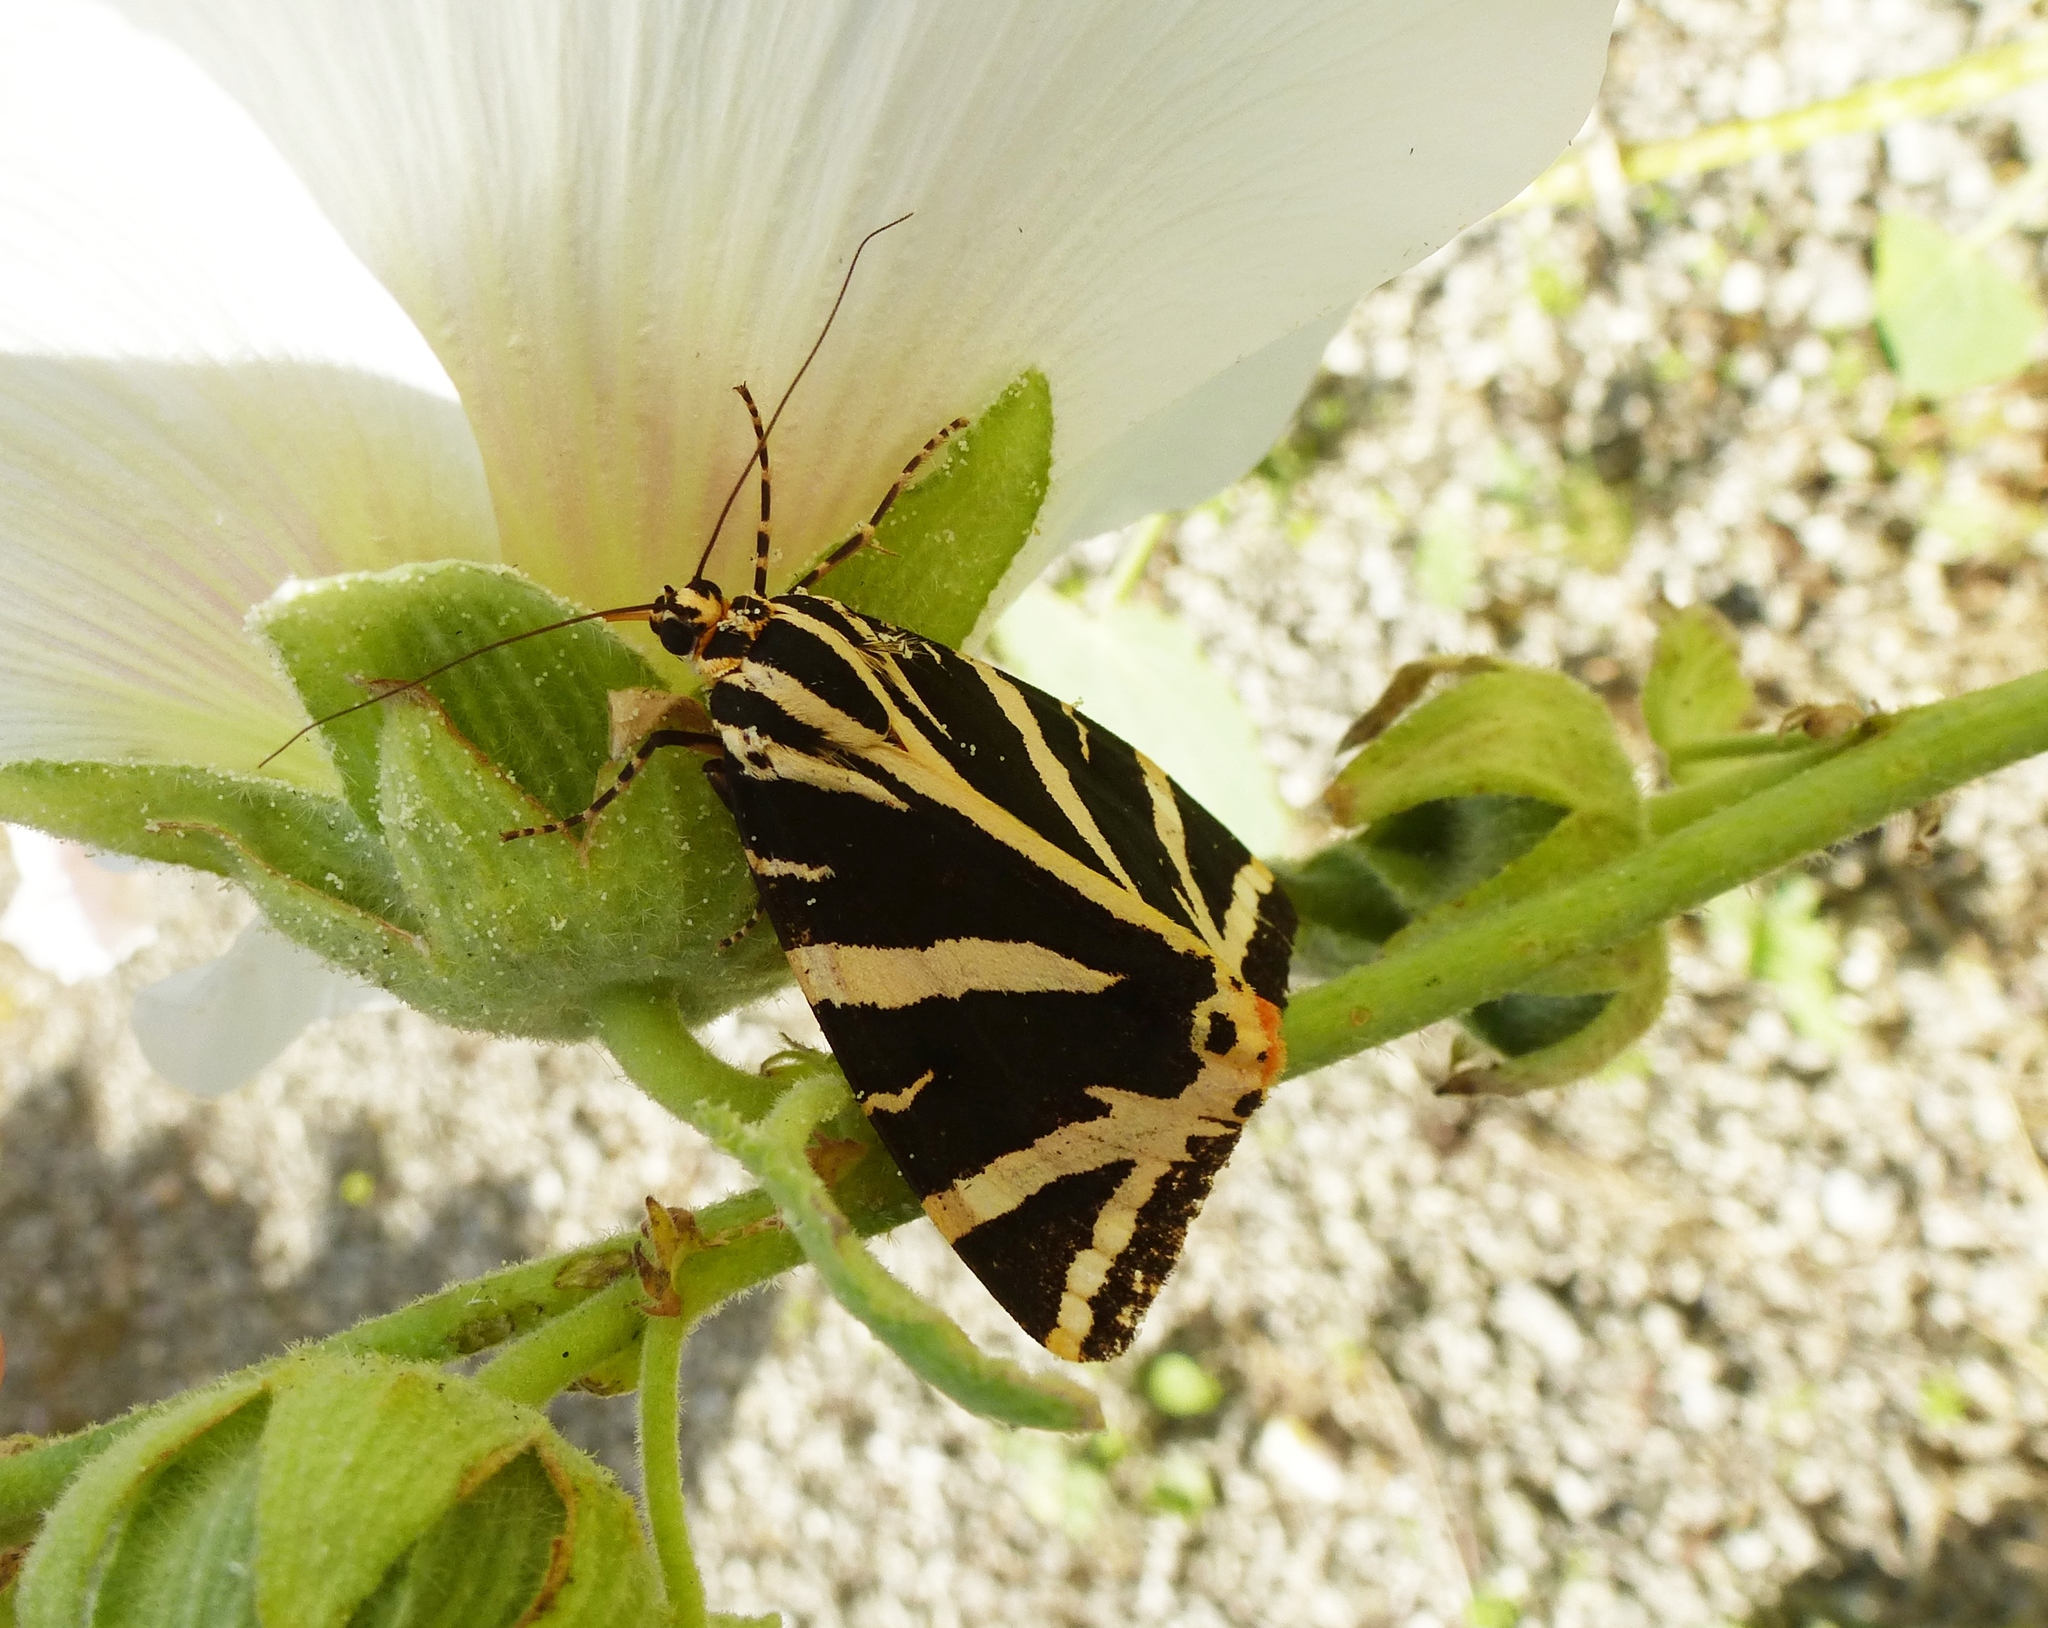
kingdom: Animalia
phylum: Arthropoda
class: Insecta
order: Lepidoptera
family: Erebidae
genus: Euplagia
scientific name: Euplagia quadripunctaria
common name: Jersey tiger
